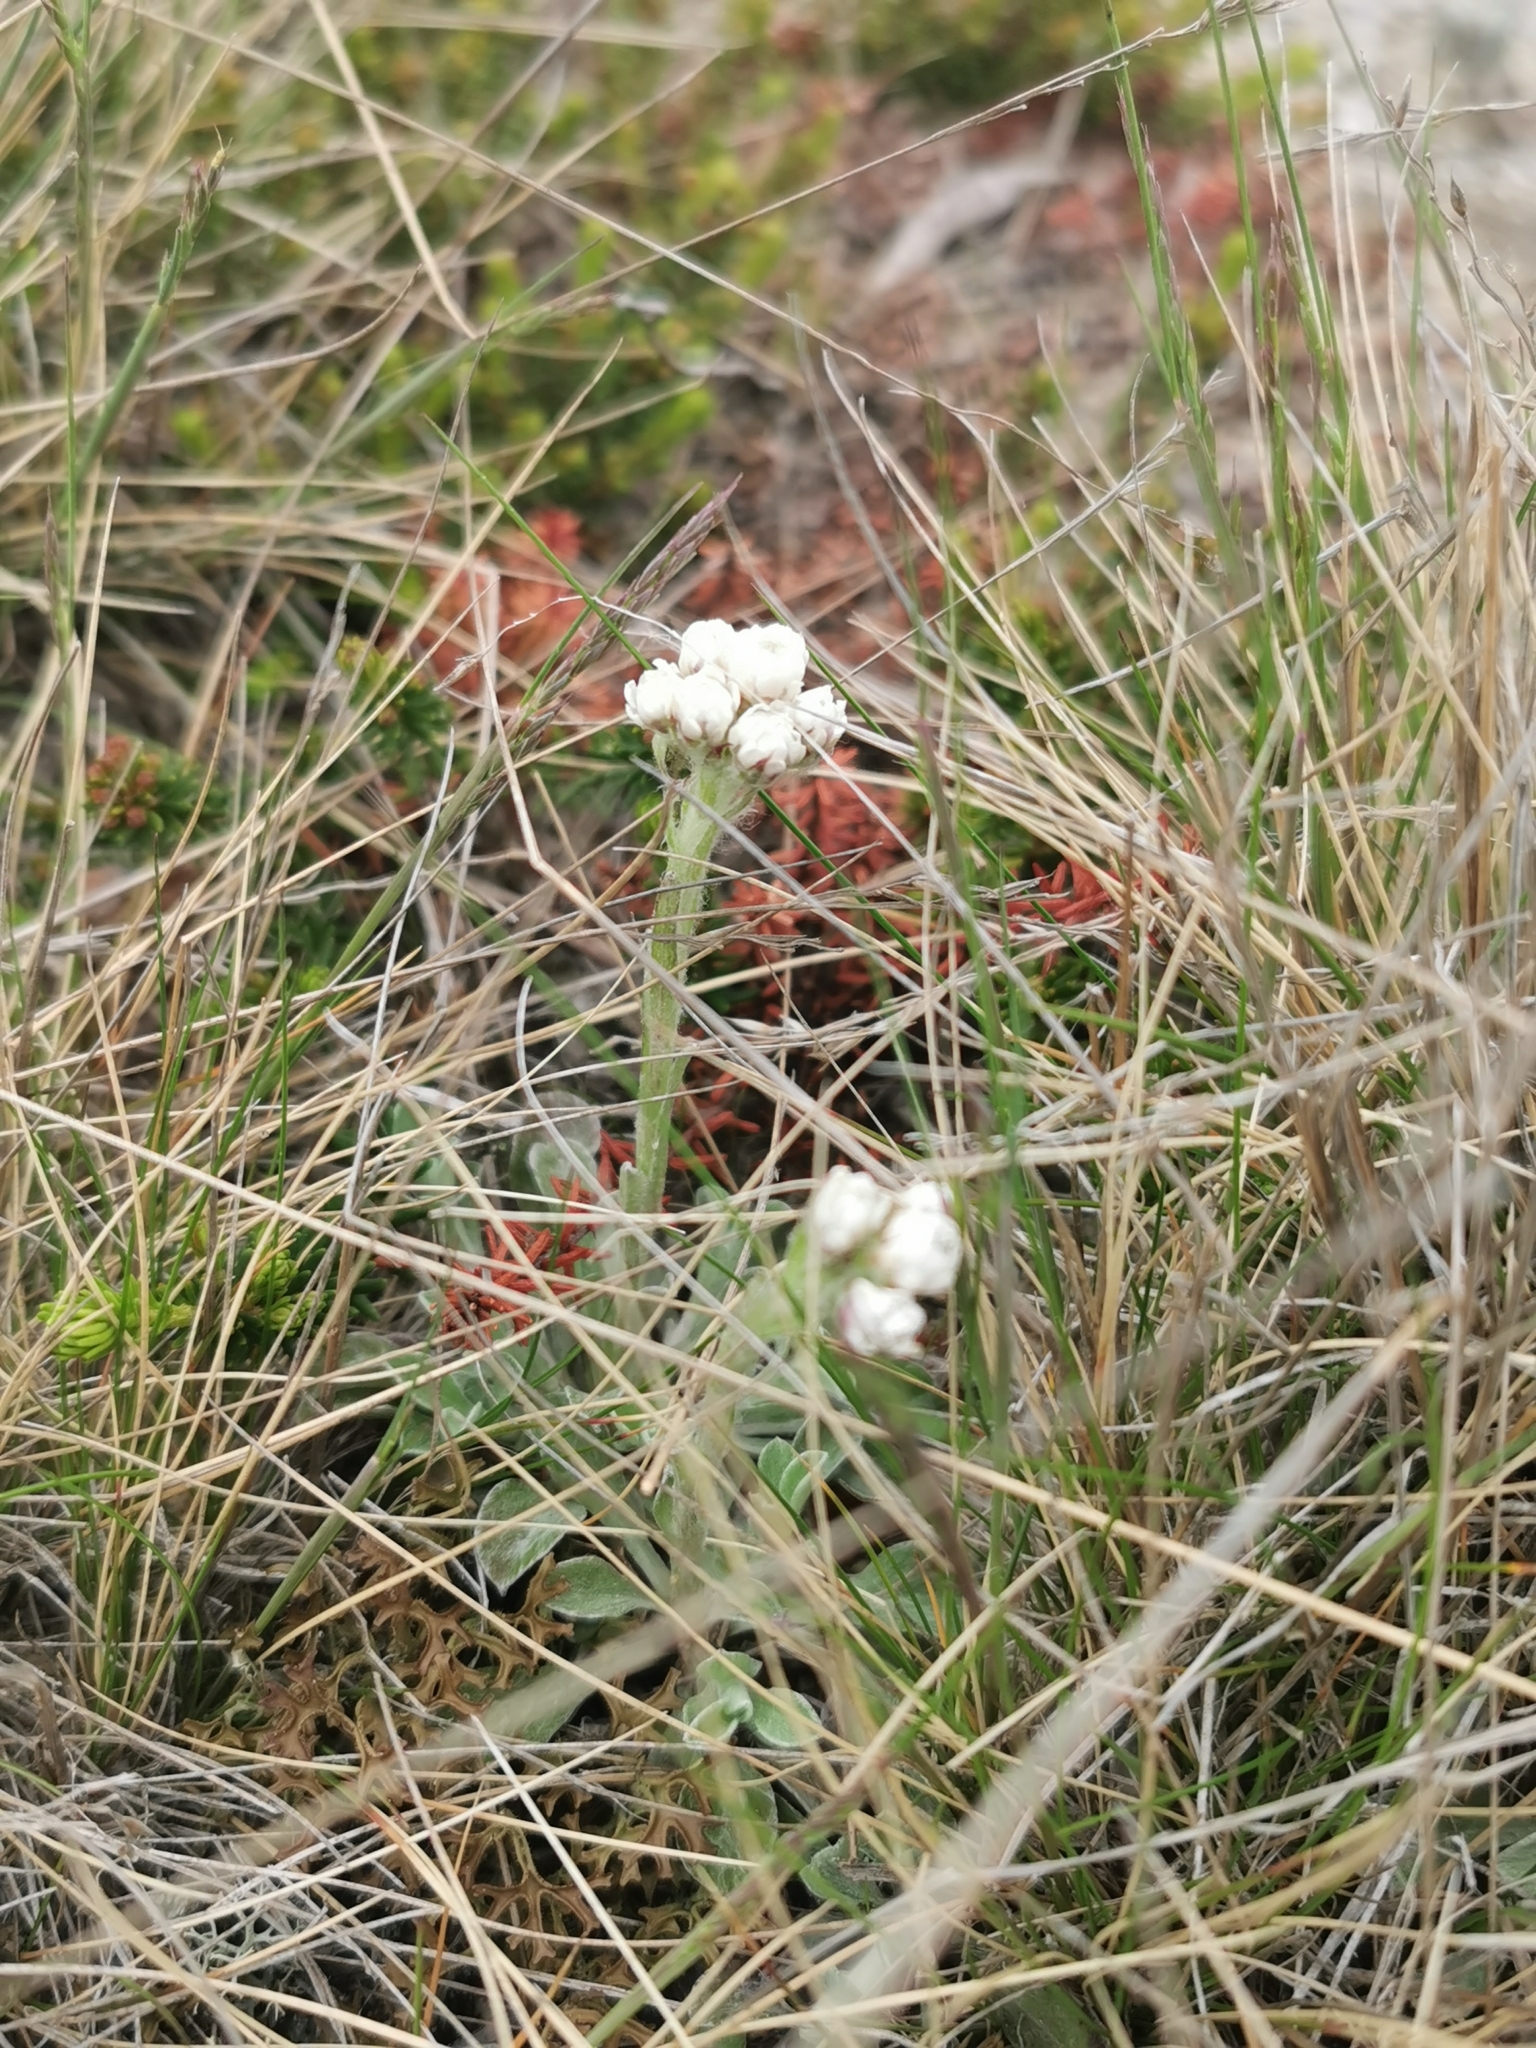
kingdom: Plantae
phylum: Tracheophyta
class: Magnoliopsida
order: Asterales
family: Asteraceae
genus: Antennaria
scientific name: Antennaria dioica
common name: Mountain everlasting
